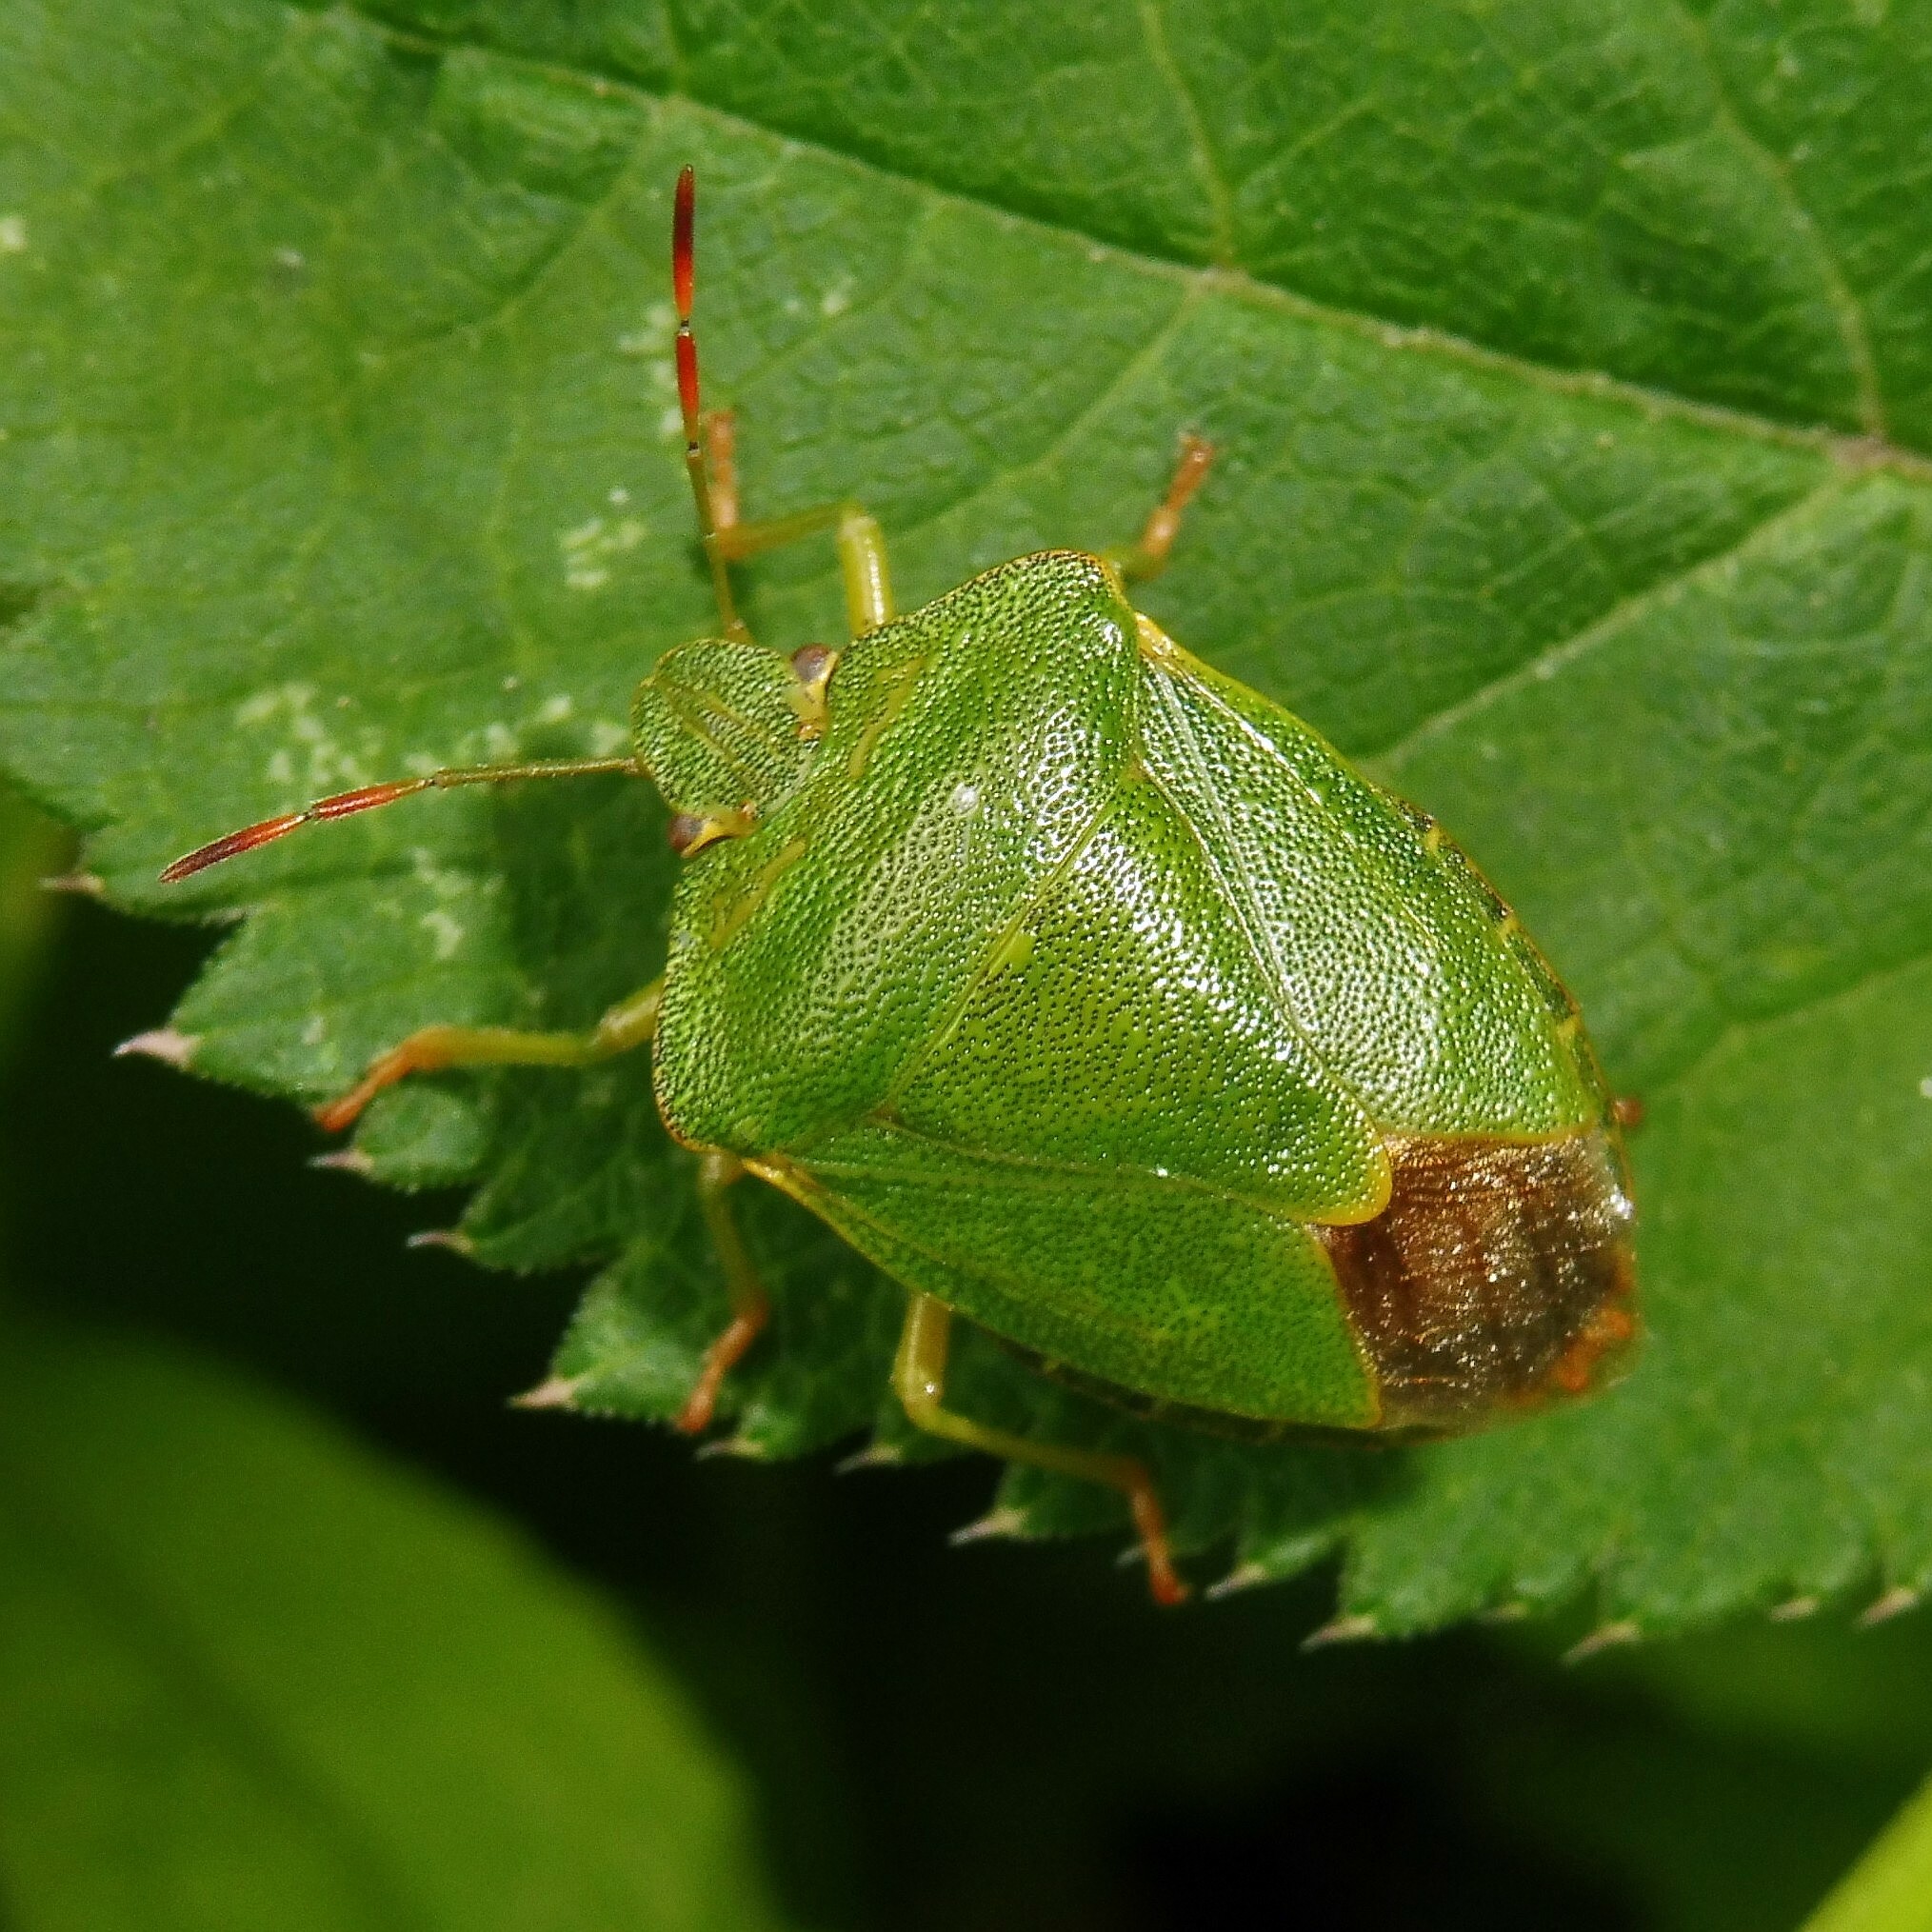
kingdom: Animalia
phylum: Arthropoda
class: Insecta
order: Hemiptera
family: Pentatomidae
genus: Palomena
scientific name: Palomena prasina
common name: Green shieldbug
